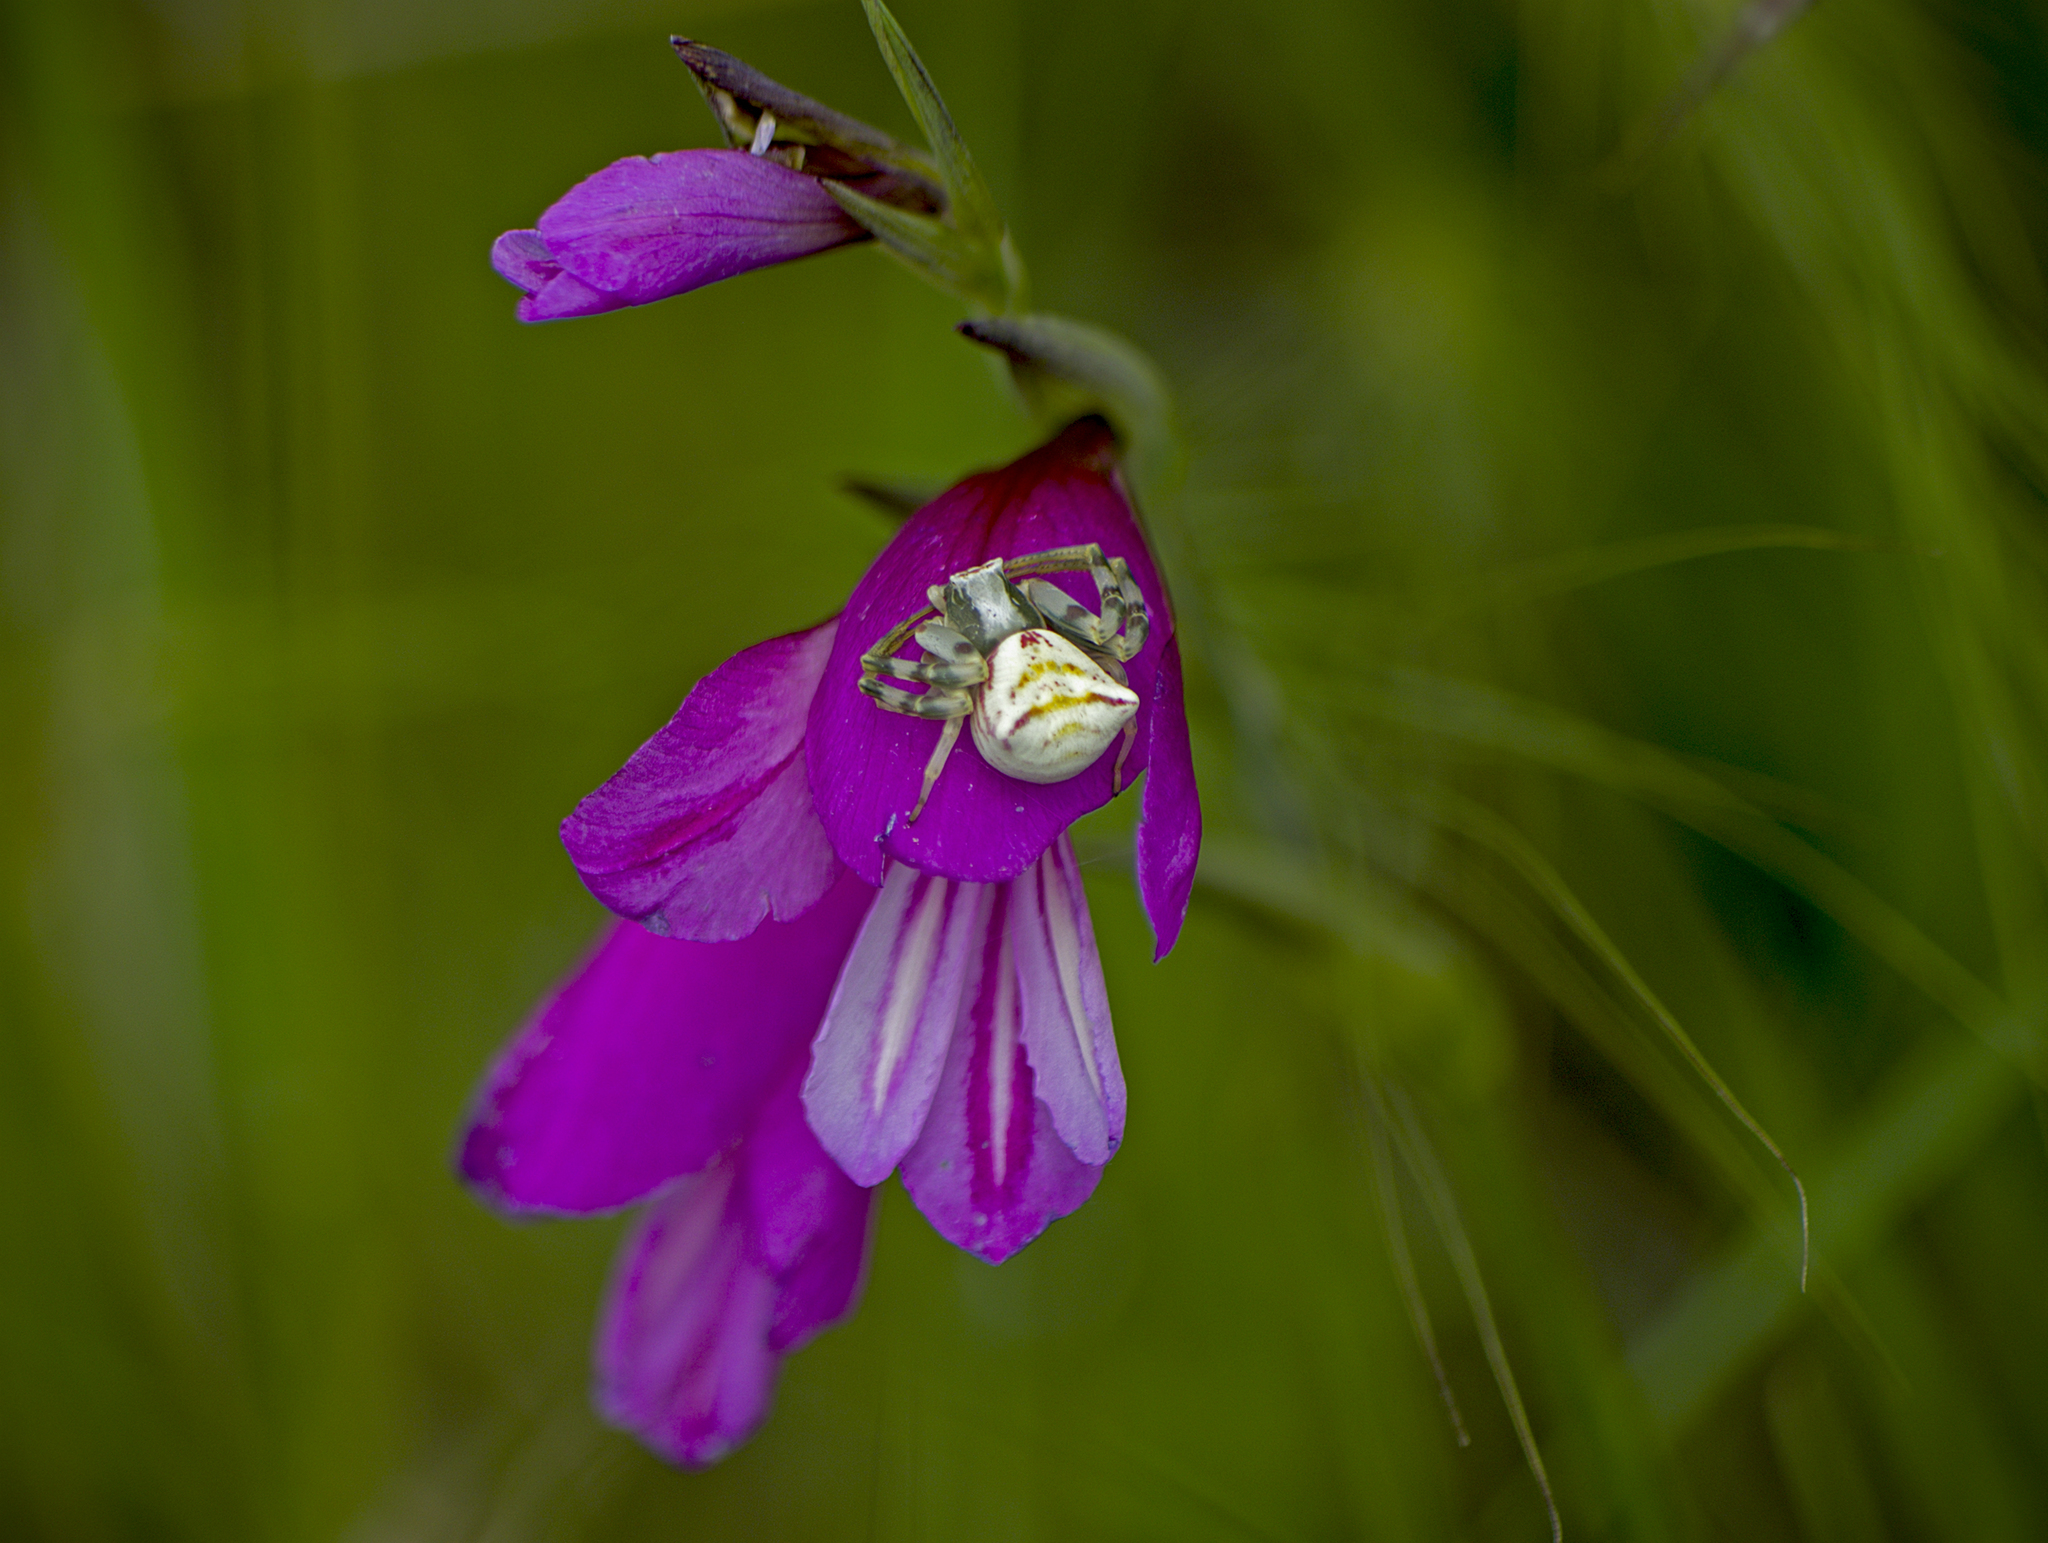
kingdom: Animalia
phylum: Arthropoda
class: Arachnida
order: Araneae
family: Thomisidae
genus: Thomisus
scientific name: Thomisus onustus
